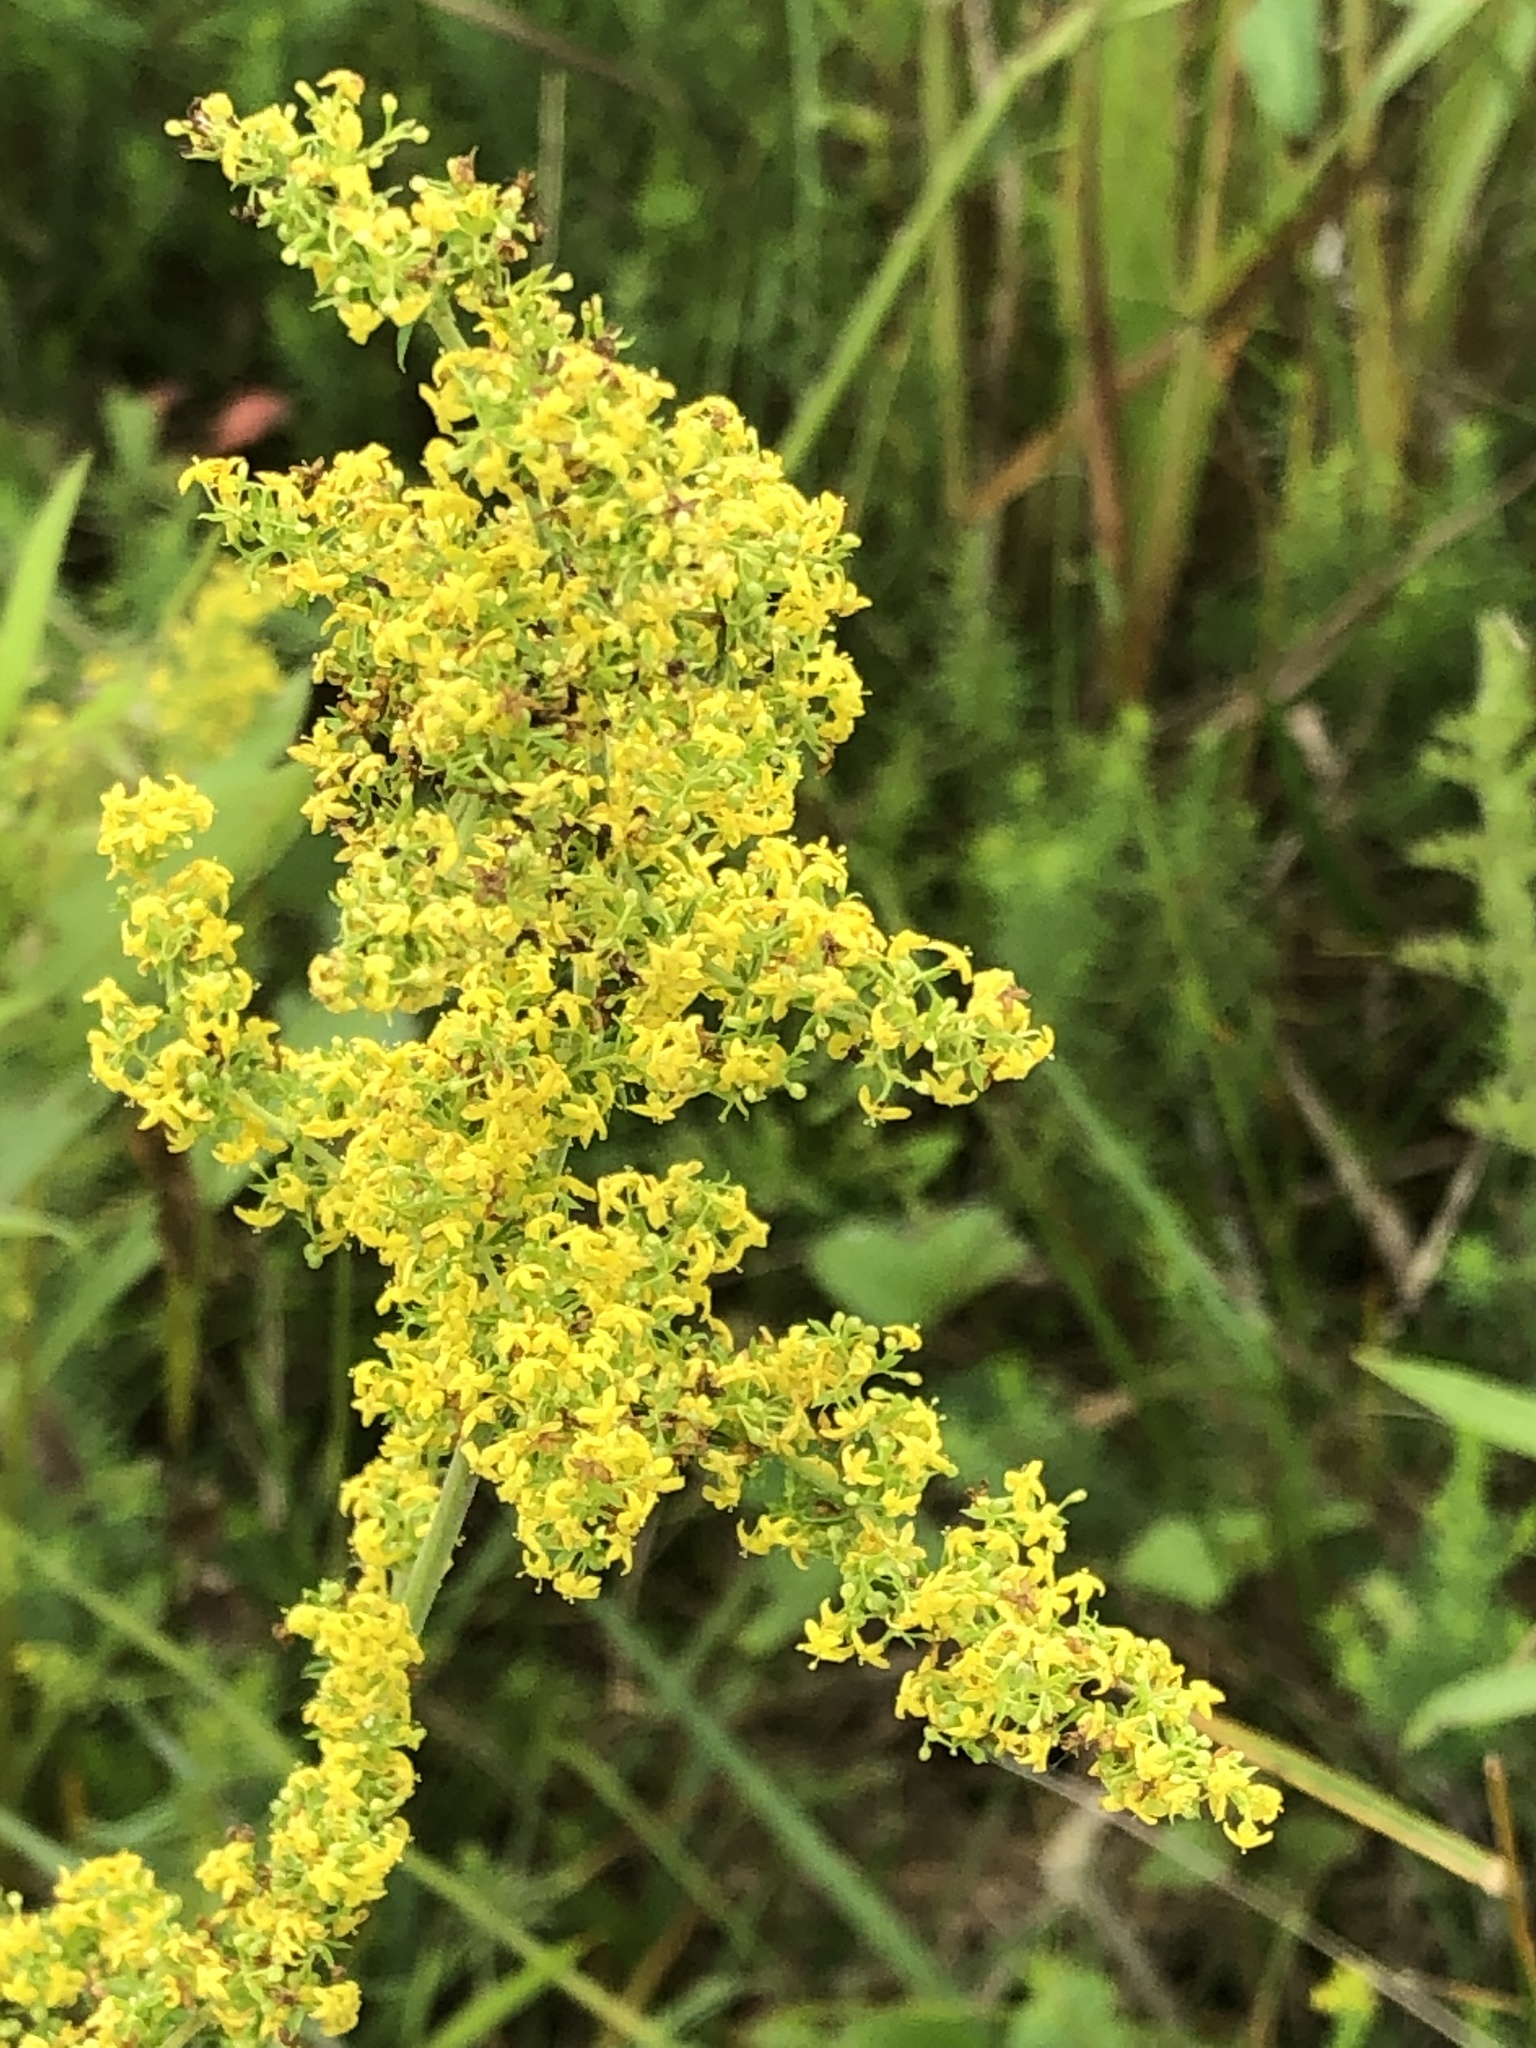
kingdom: Plantae
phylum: Tracheophyta
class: Magnoliopsida
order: Gentianales
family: Rubiaceae
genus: Galium
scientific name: Galium verum
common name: Lady's bedstraw
